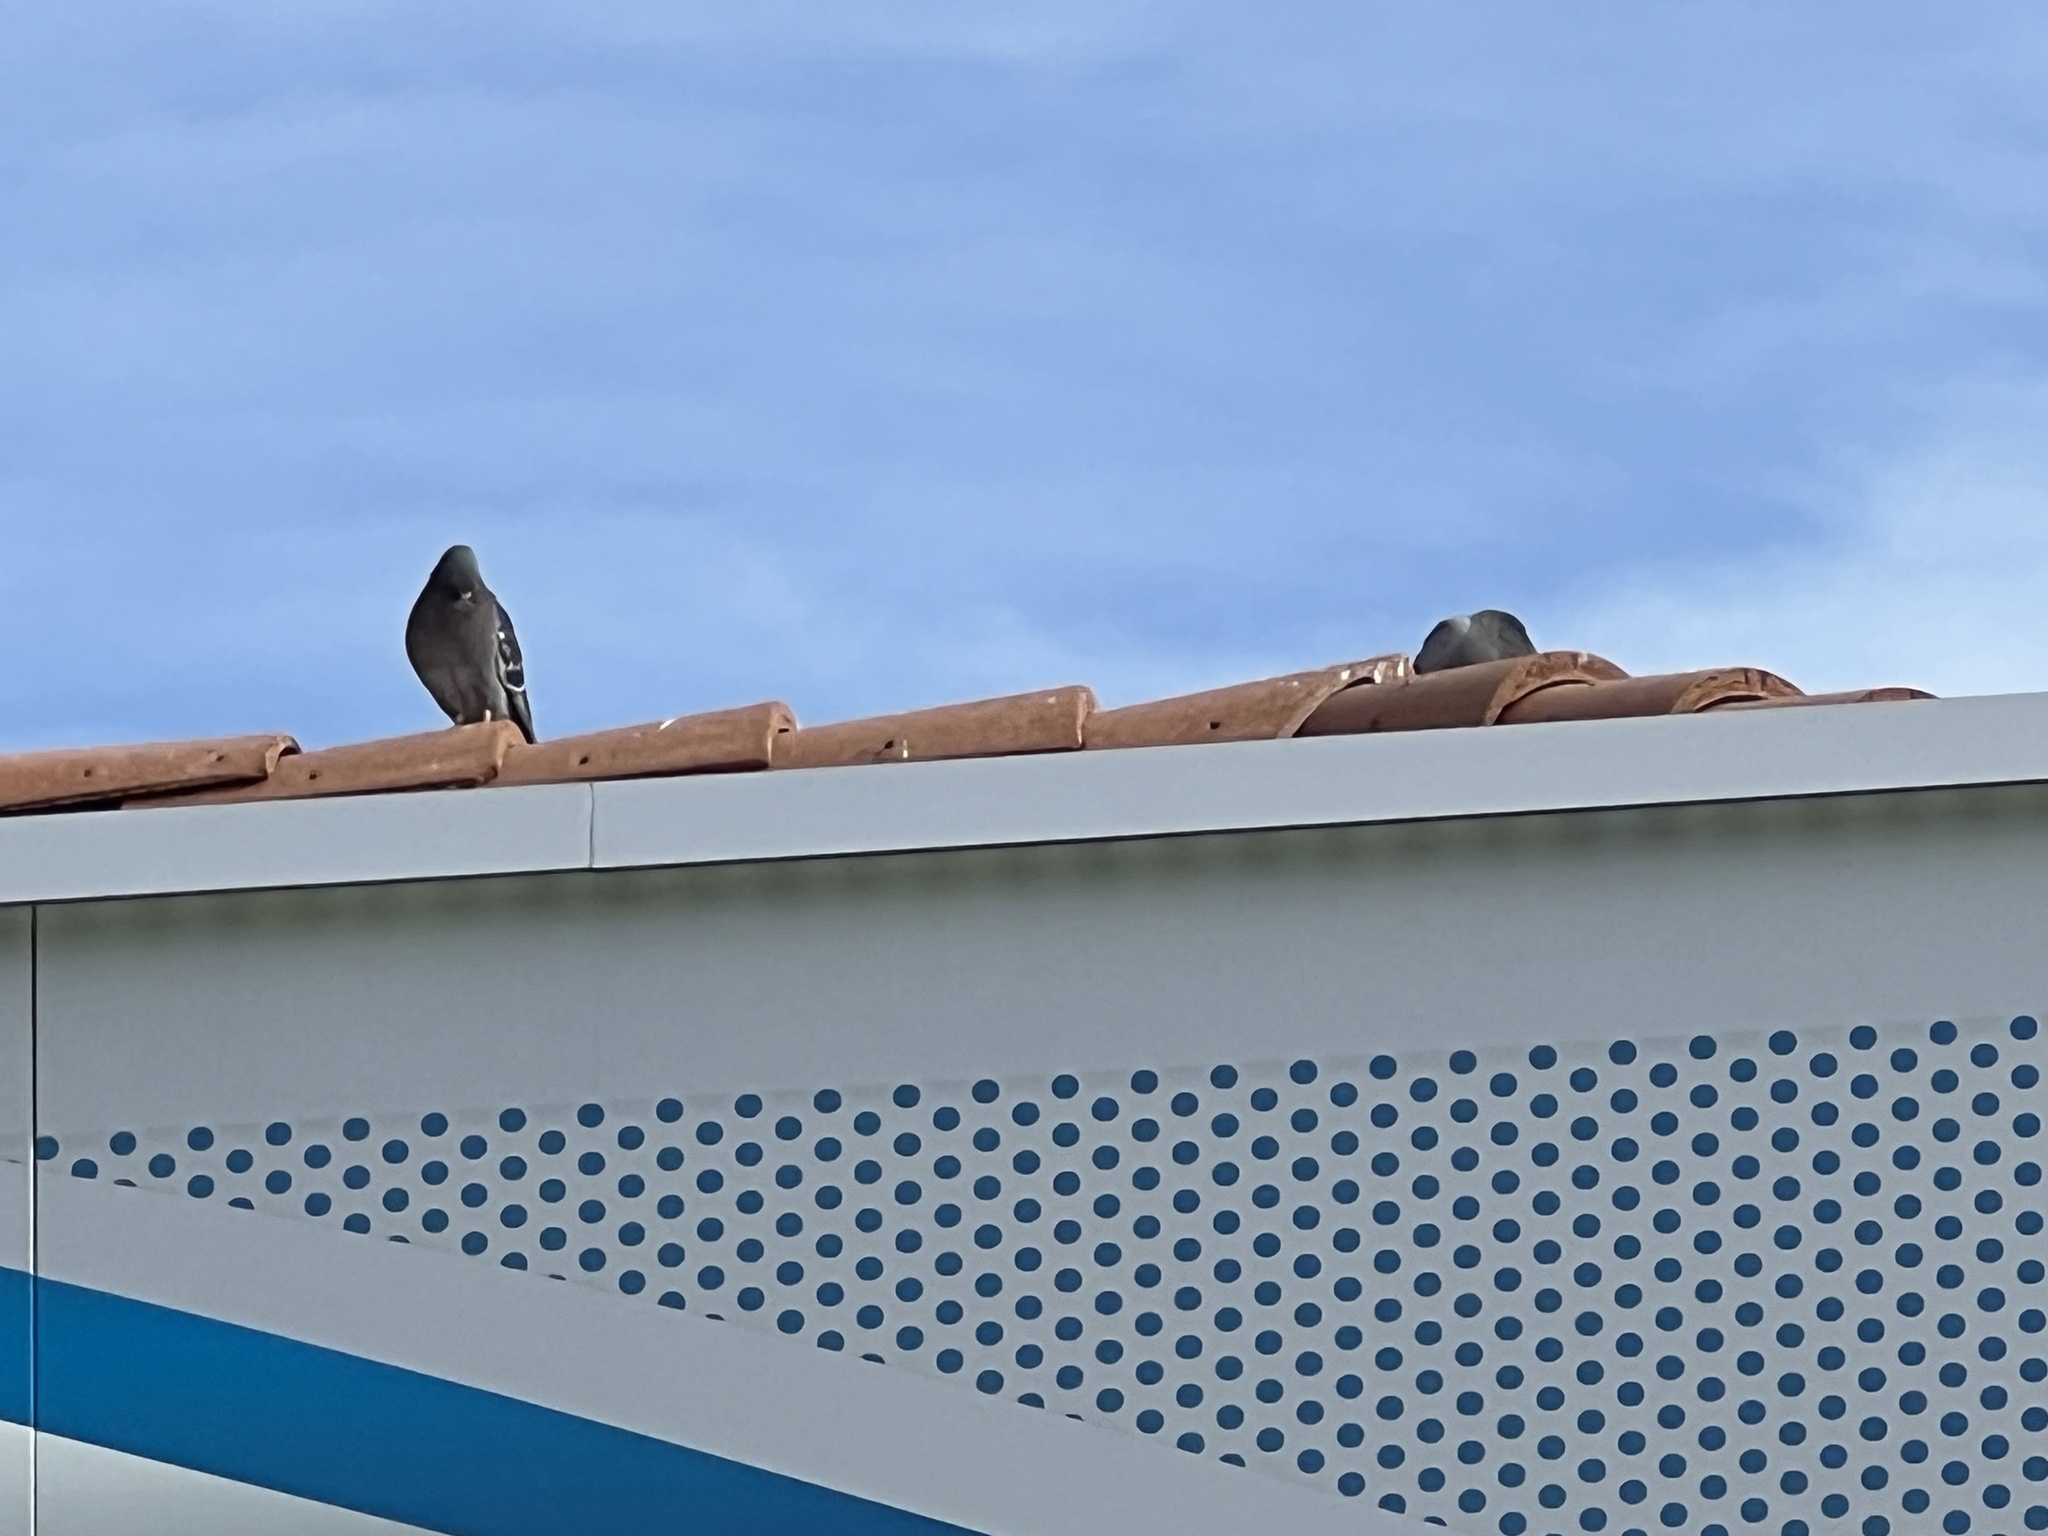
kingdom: Animalia
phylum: Chordata
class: Aves
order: Columbiformes
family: Columbidae
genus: Columba
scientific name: Columba livia
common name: Rock pigeon
